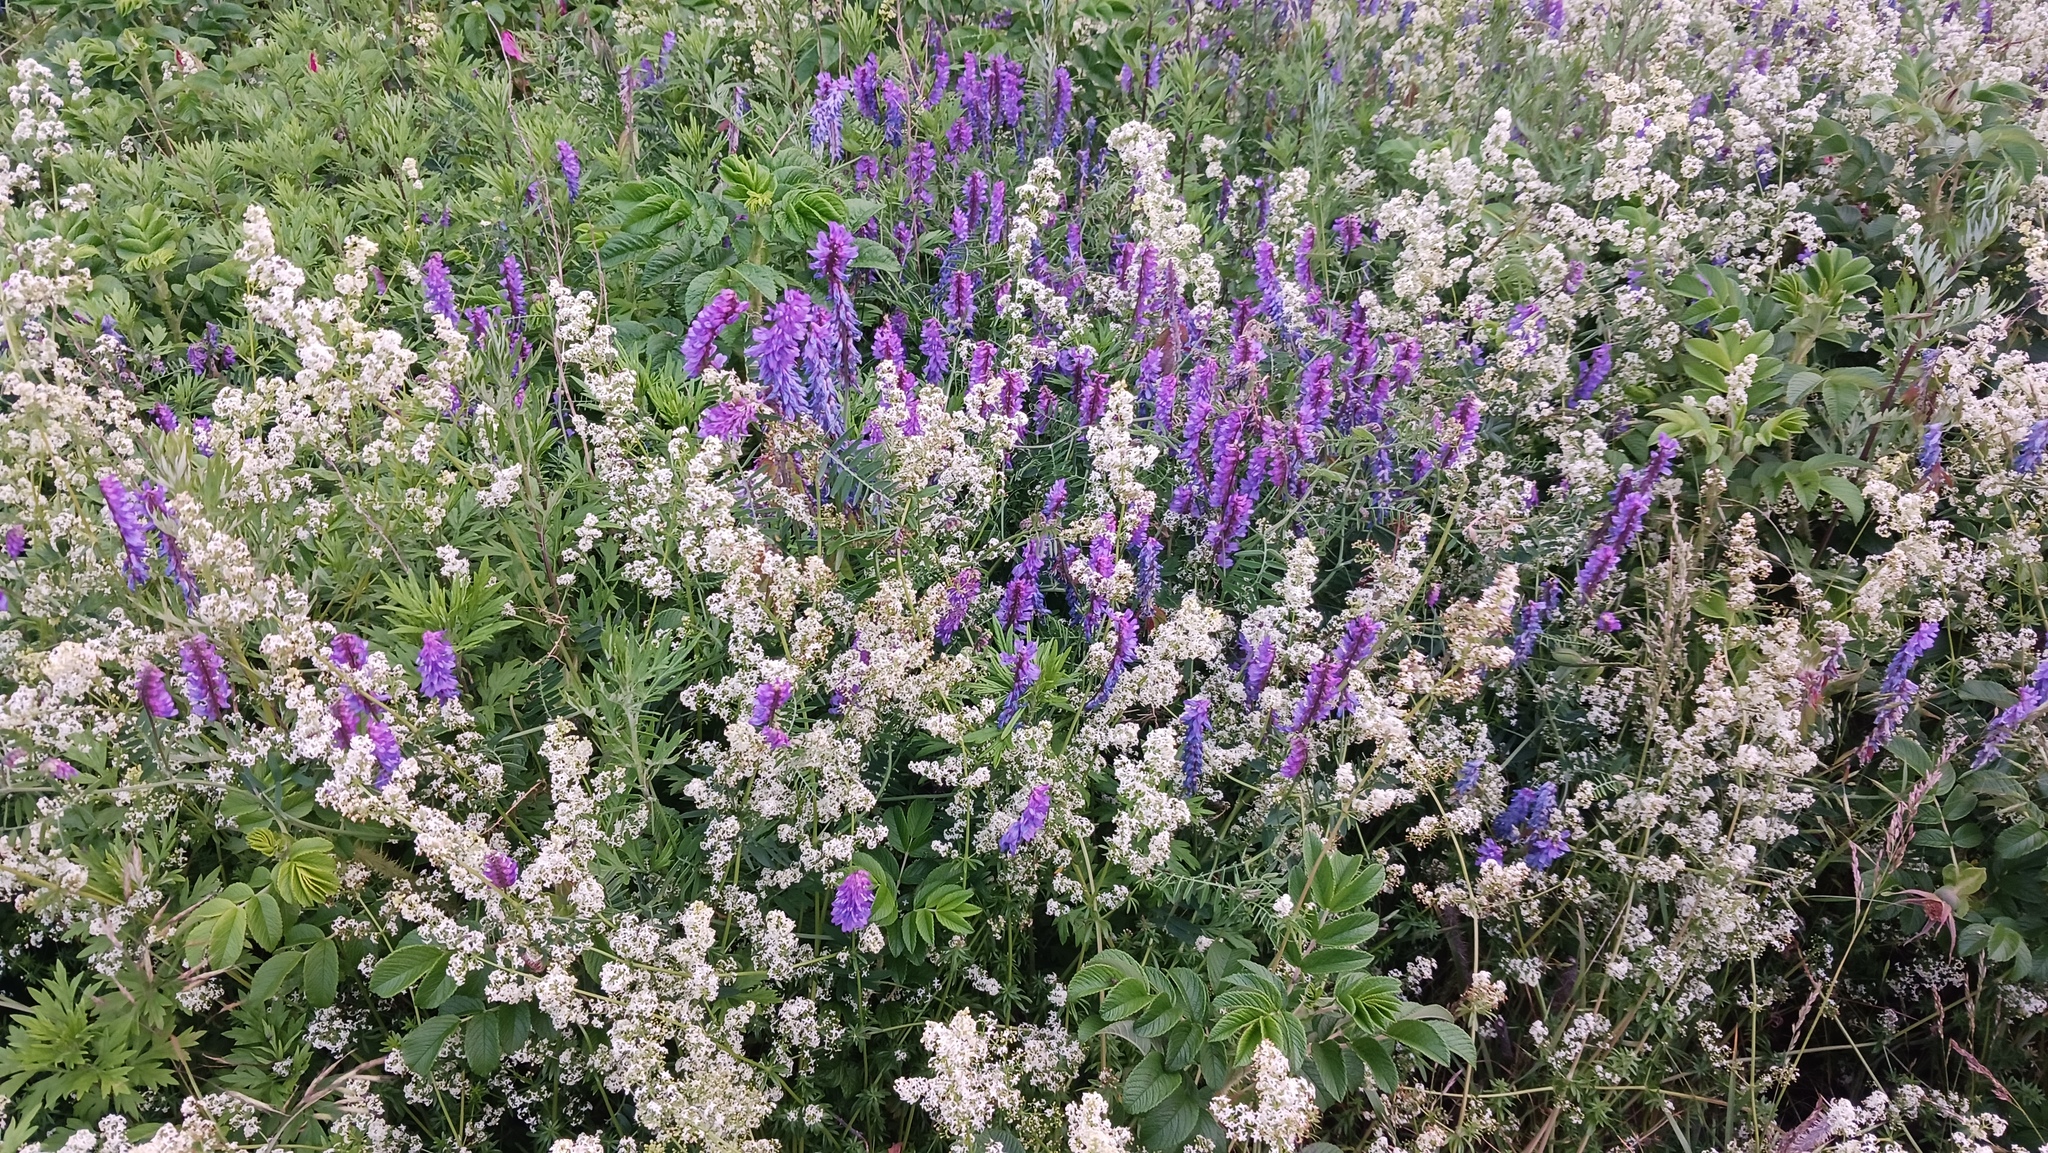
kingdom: Plantae
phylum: Tracheophyta
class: Magnoliopsida
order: Fabales
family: Fabaceae
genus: Vicia
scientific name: Vicia cracca
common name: Bird vetch
